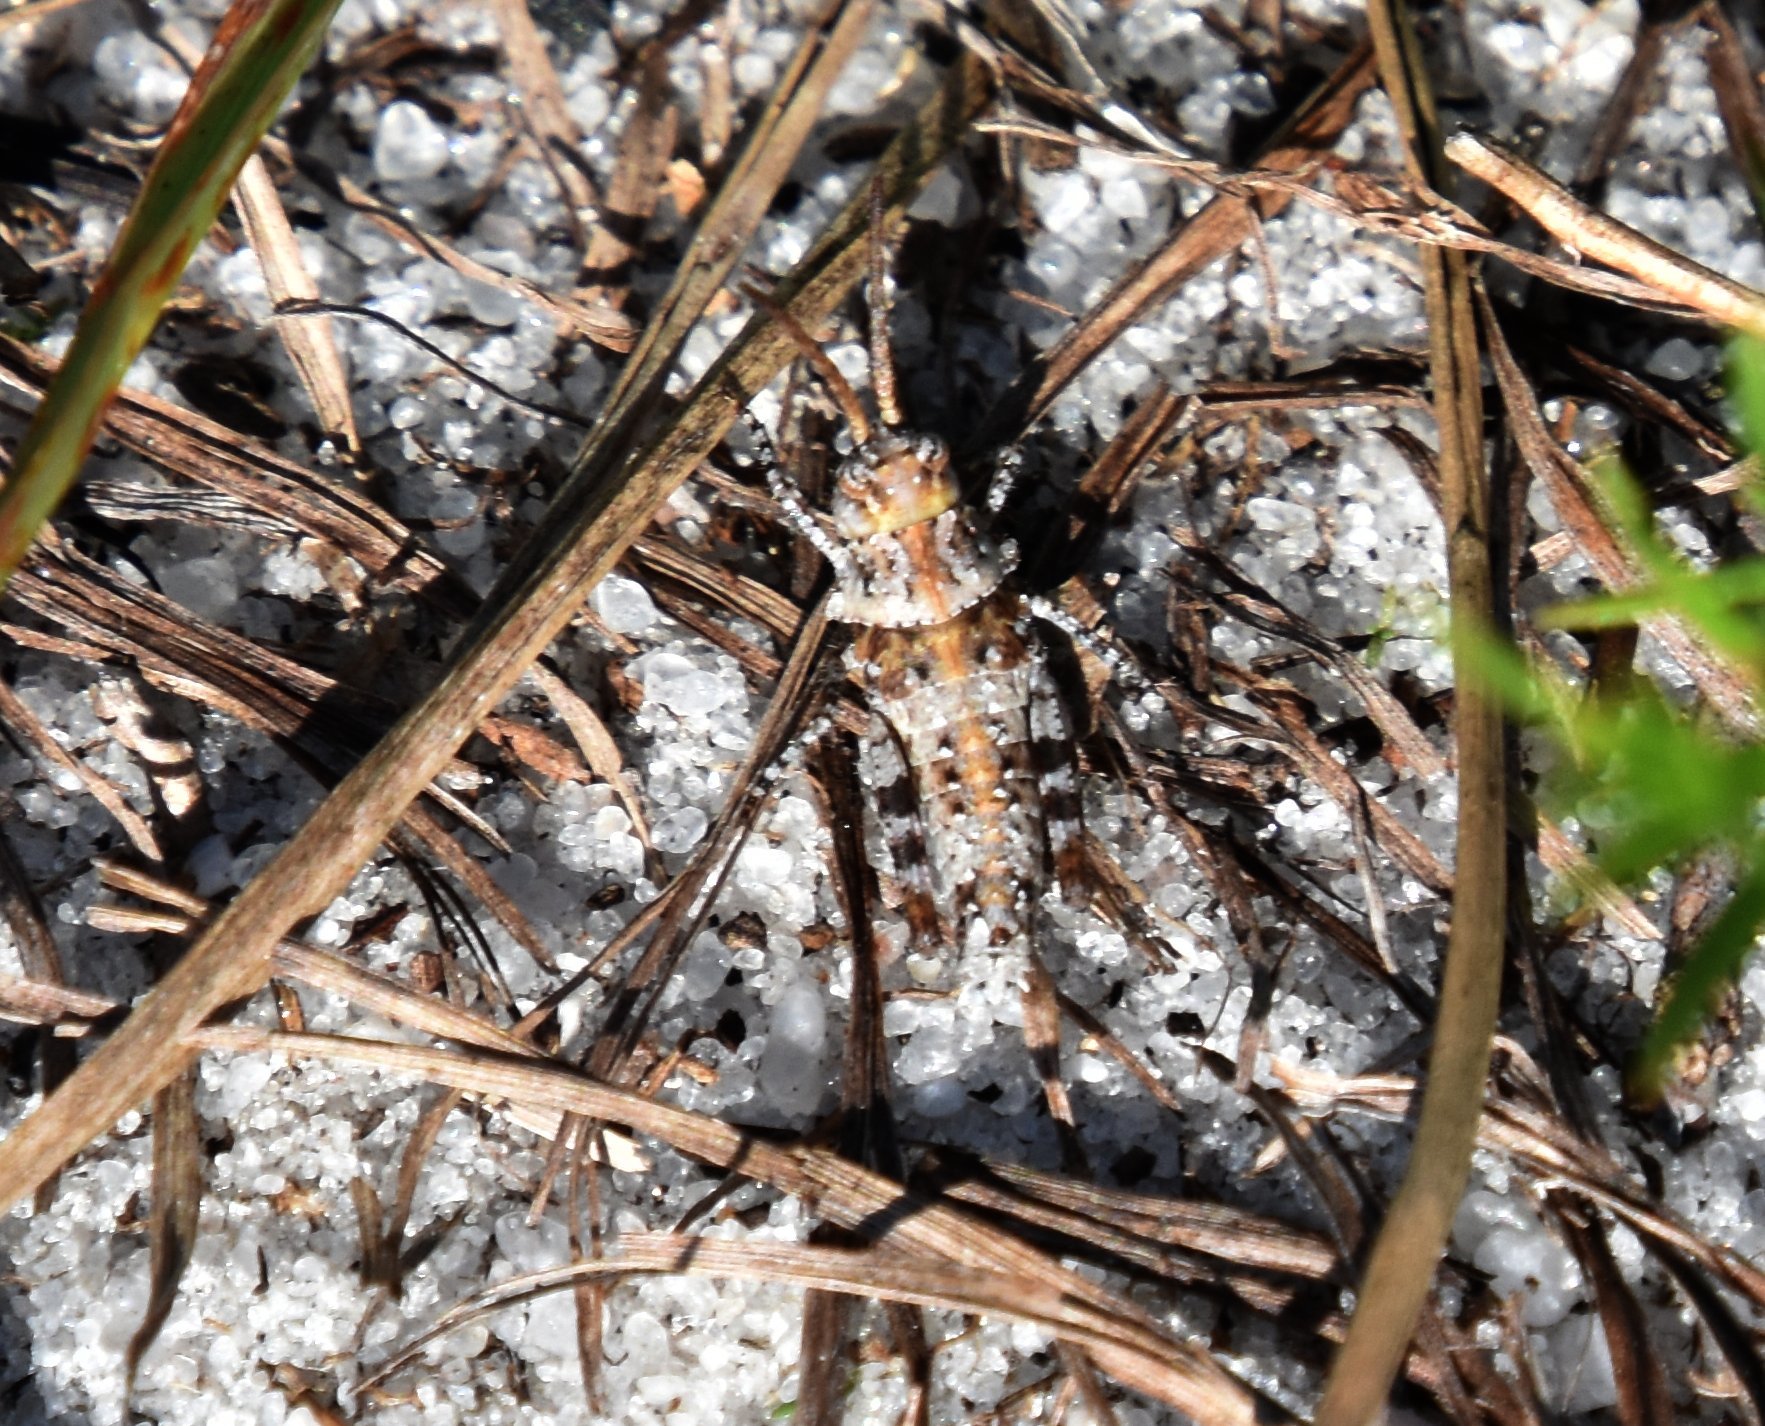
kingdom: Animalia
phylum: Arthropoda
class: Insecta
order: Orthoptera
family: Acrididae
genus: Psinidia
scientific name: Psinidia fenestralis
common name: Long-horned locust
